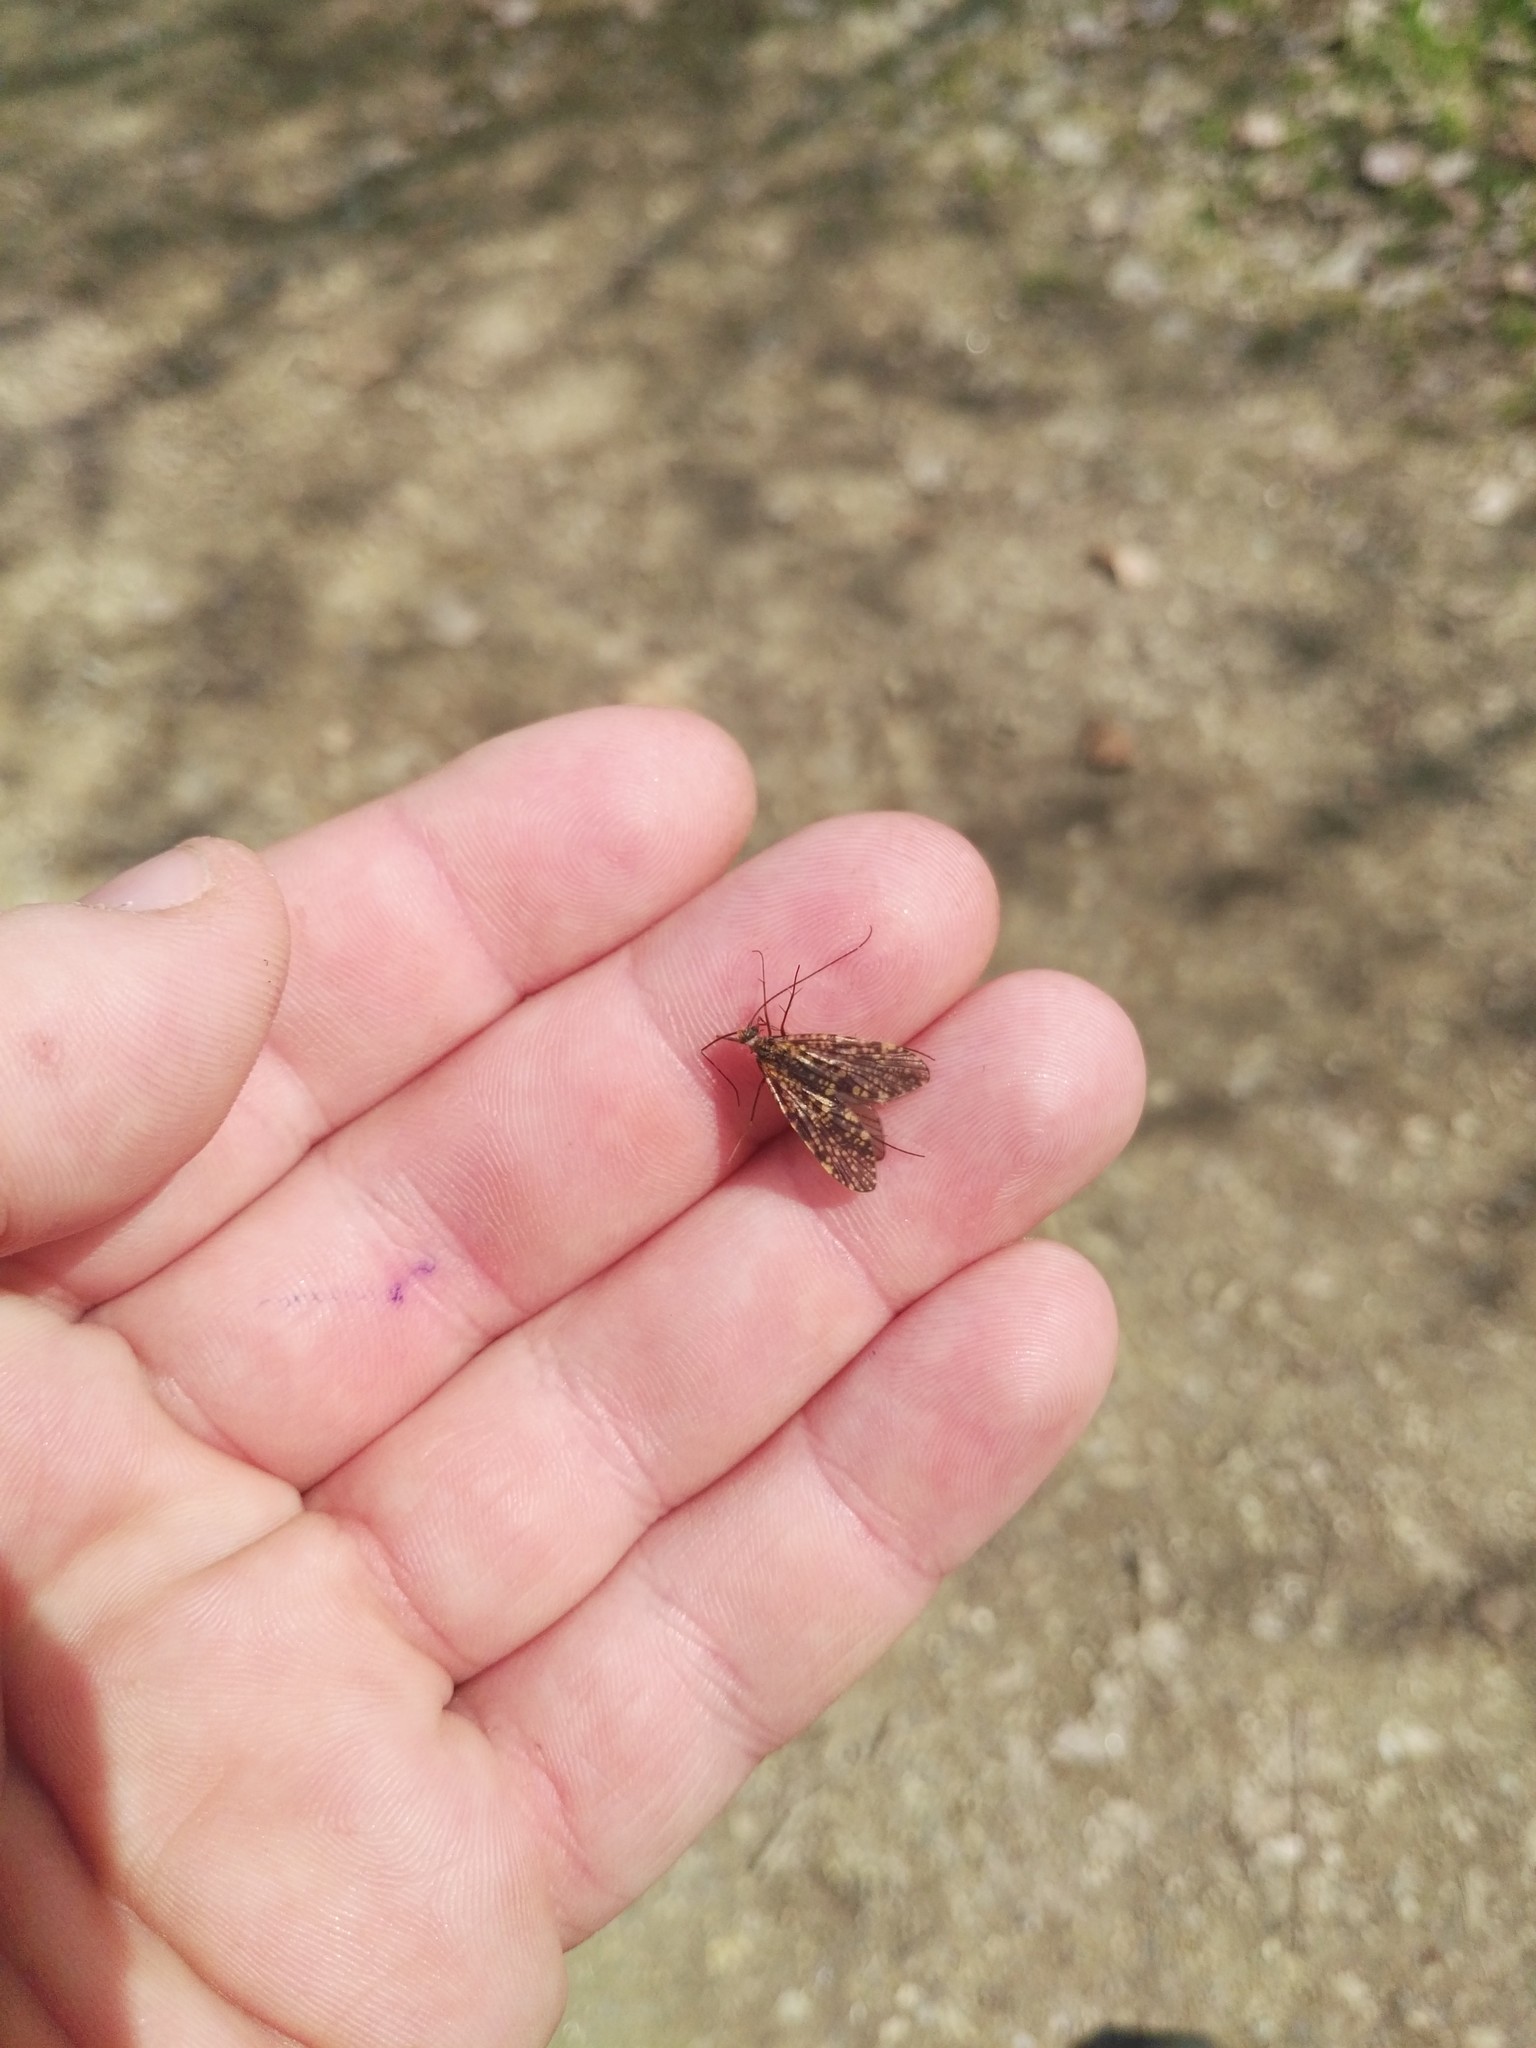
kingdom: Animalia
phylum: Arthropoda
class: Insecta
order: Trichoptera
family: Philopotamidae
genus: Philopotamus
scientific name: Philopotamus
